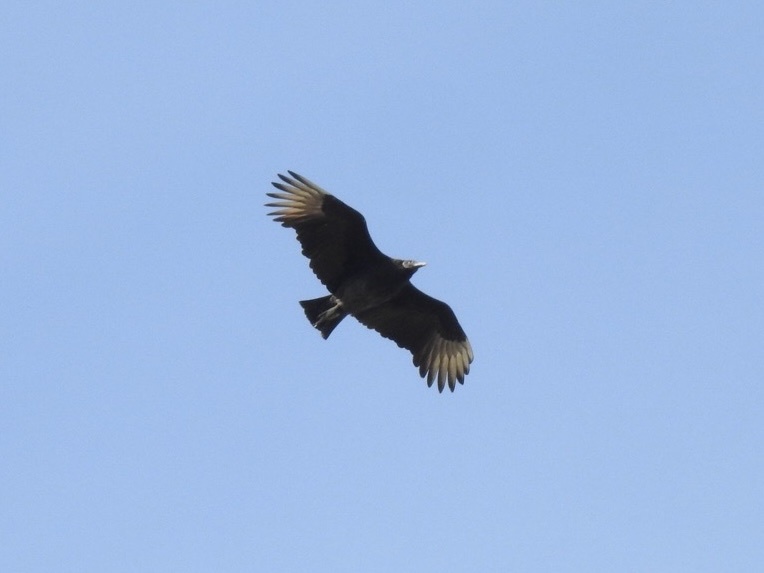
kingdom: Animalia
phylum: Chordata
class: Aves
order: Accipitriformes
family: Cathartidae
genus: Coragyps
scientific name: Coragyps atratus
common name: Black vulture
